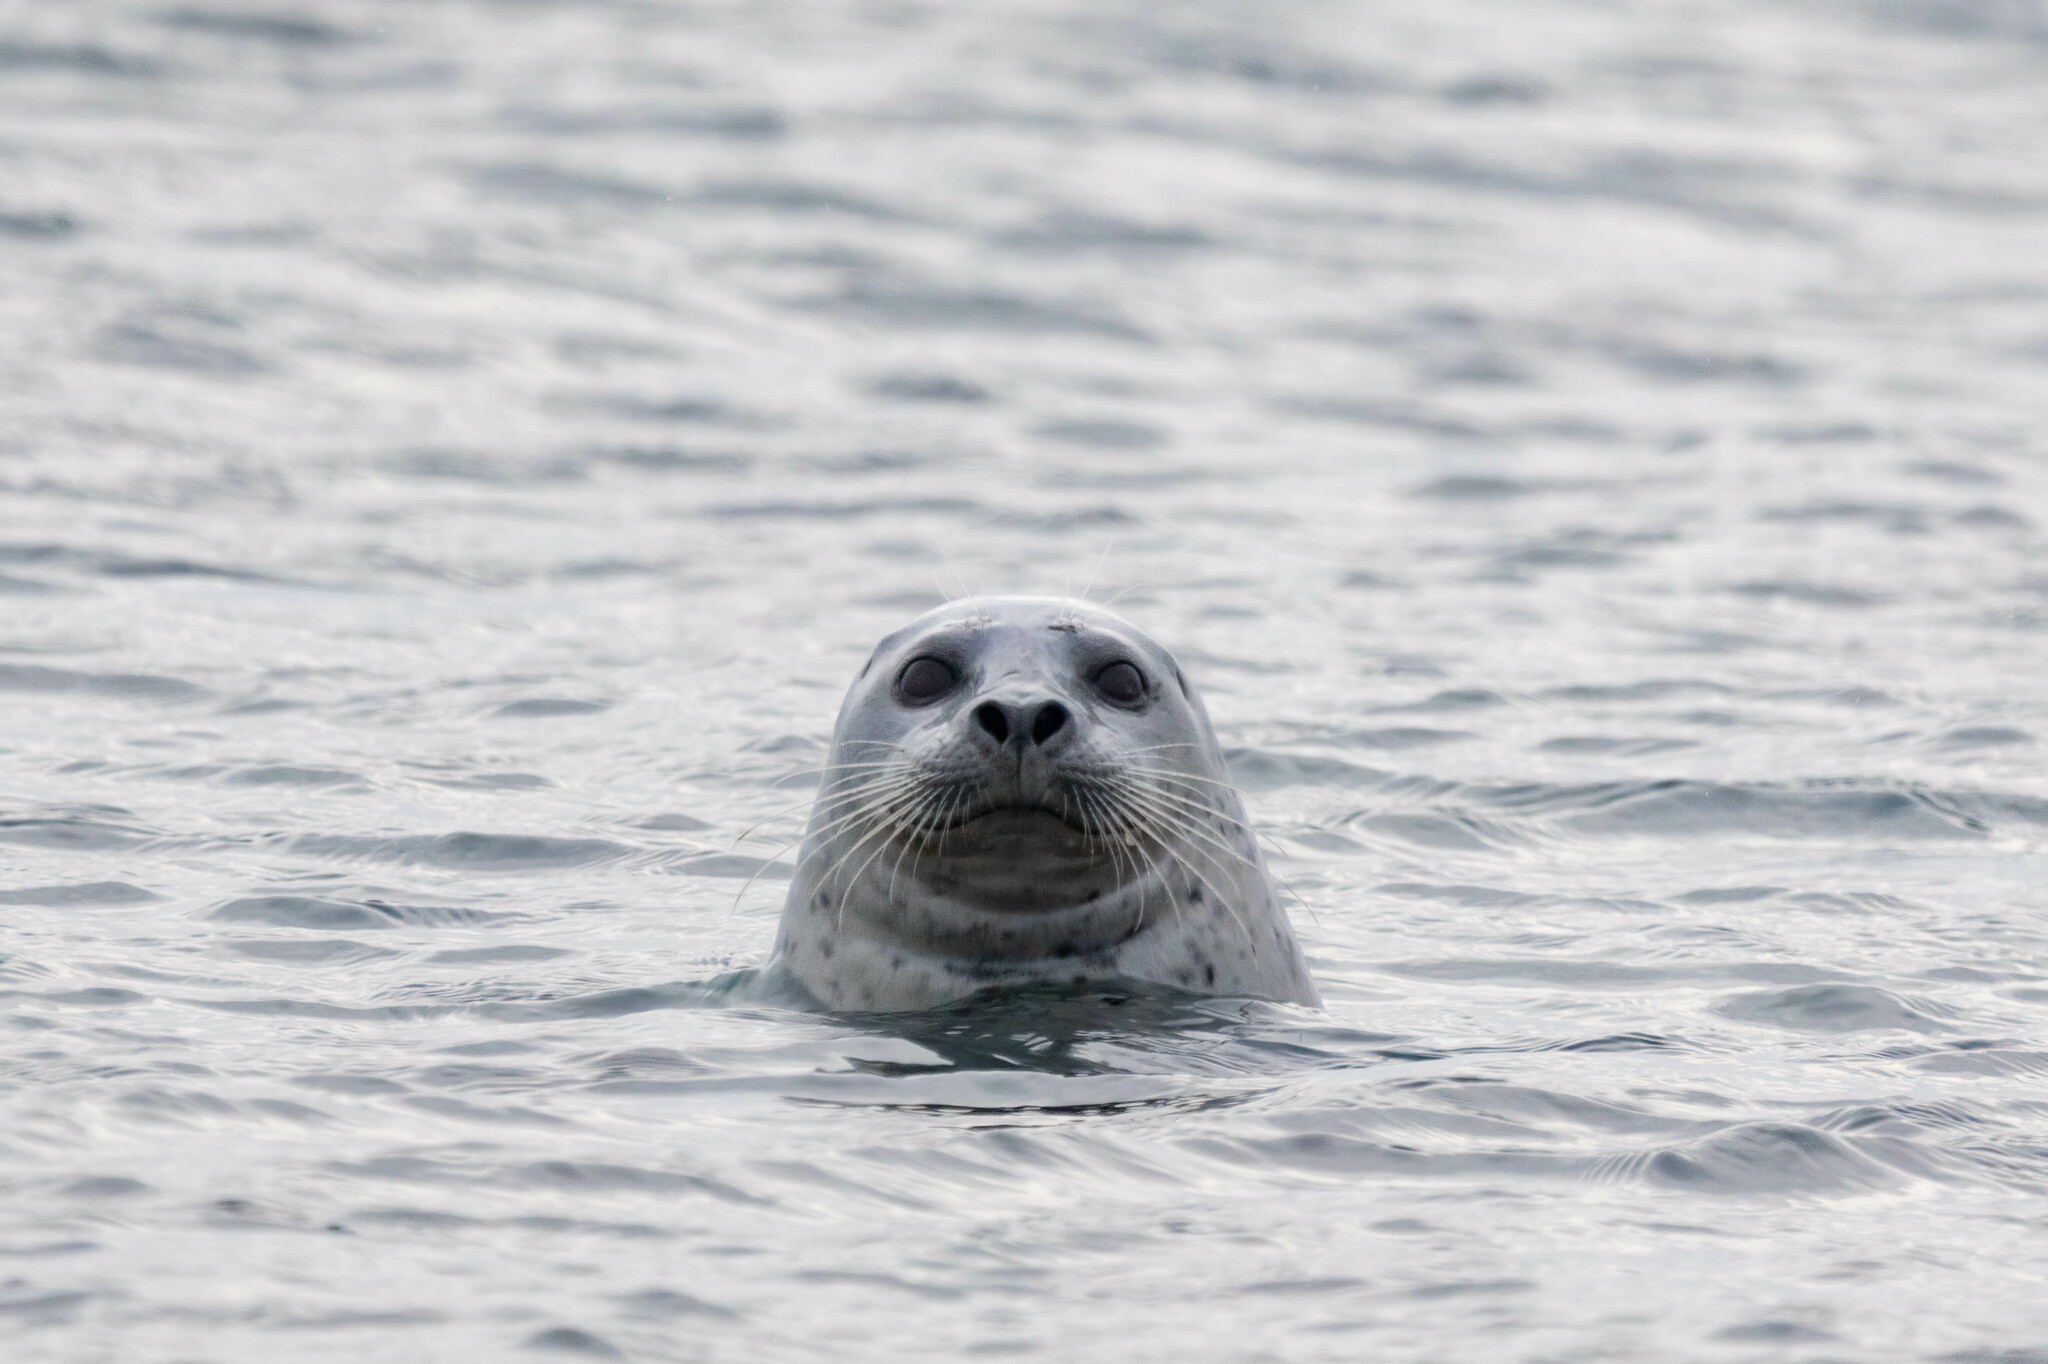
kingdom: Animalia
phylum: Chordata
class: Mammalia
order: Carnivora
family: Phocidae
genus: Phoca
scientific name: Phoca vitulina
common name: Harbor seal
